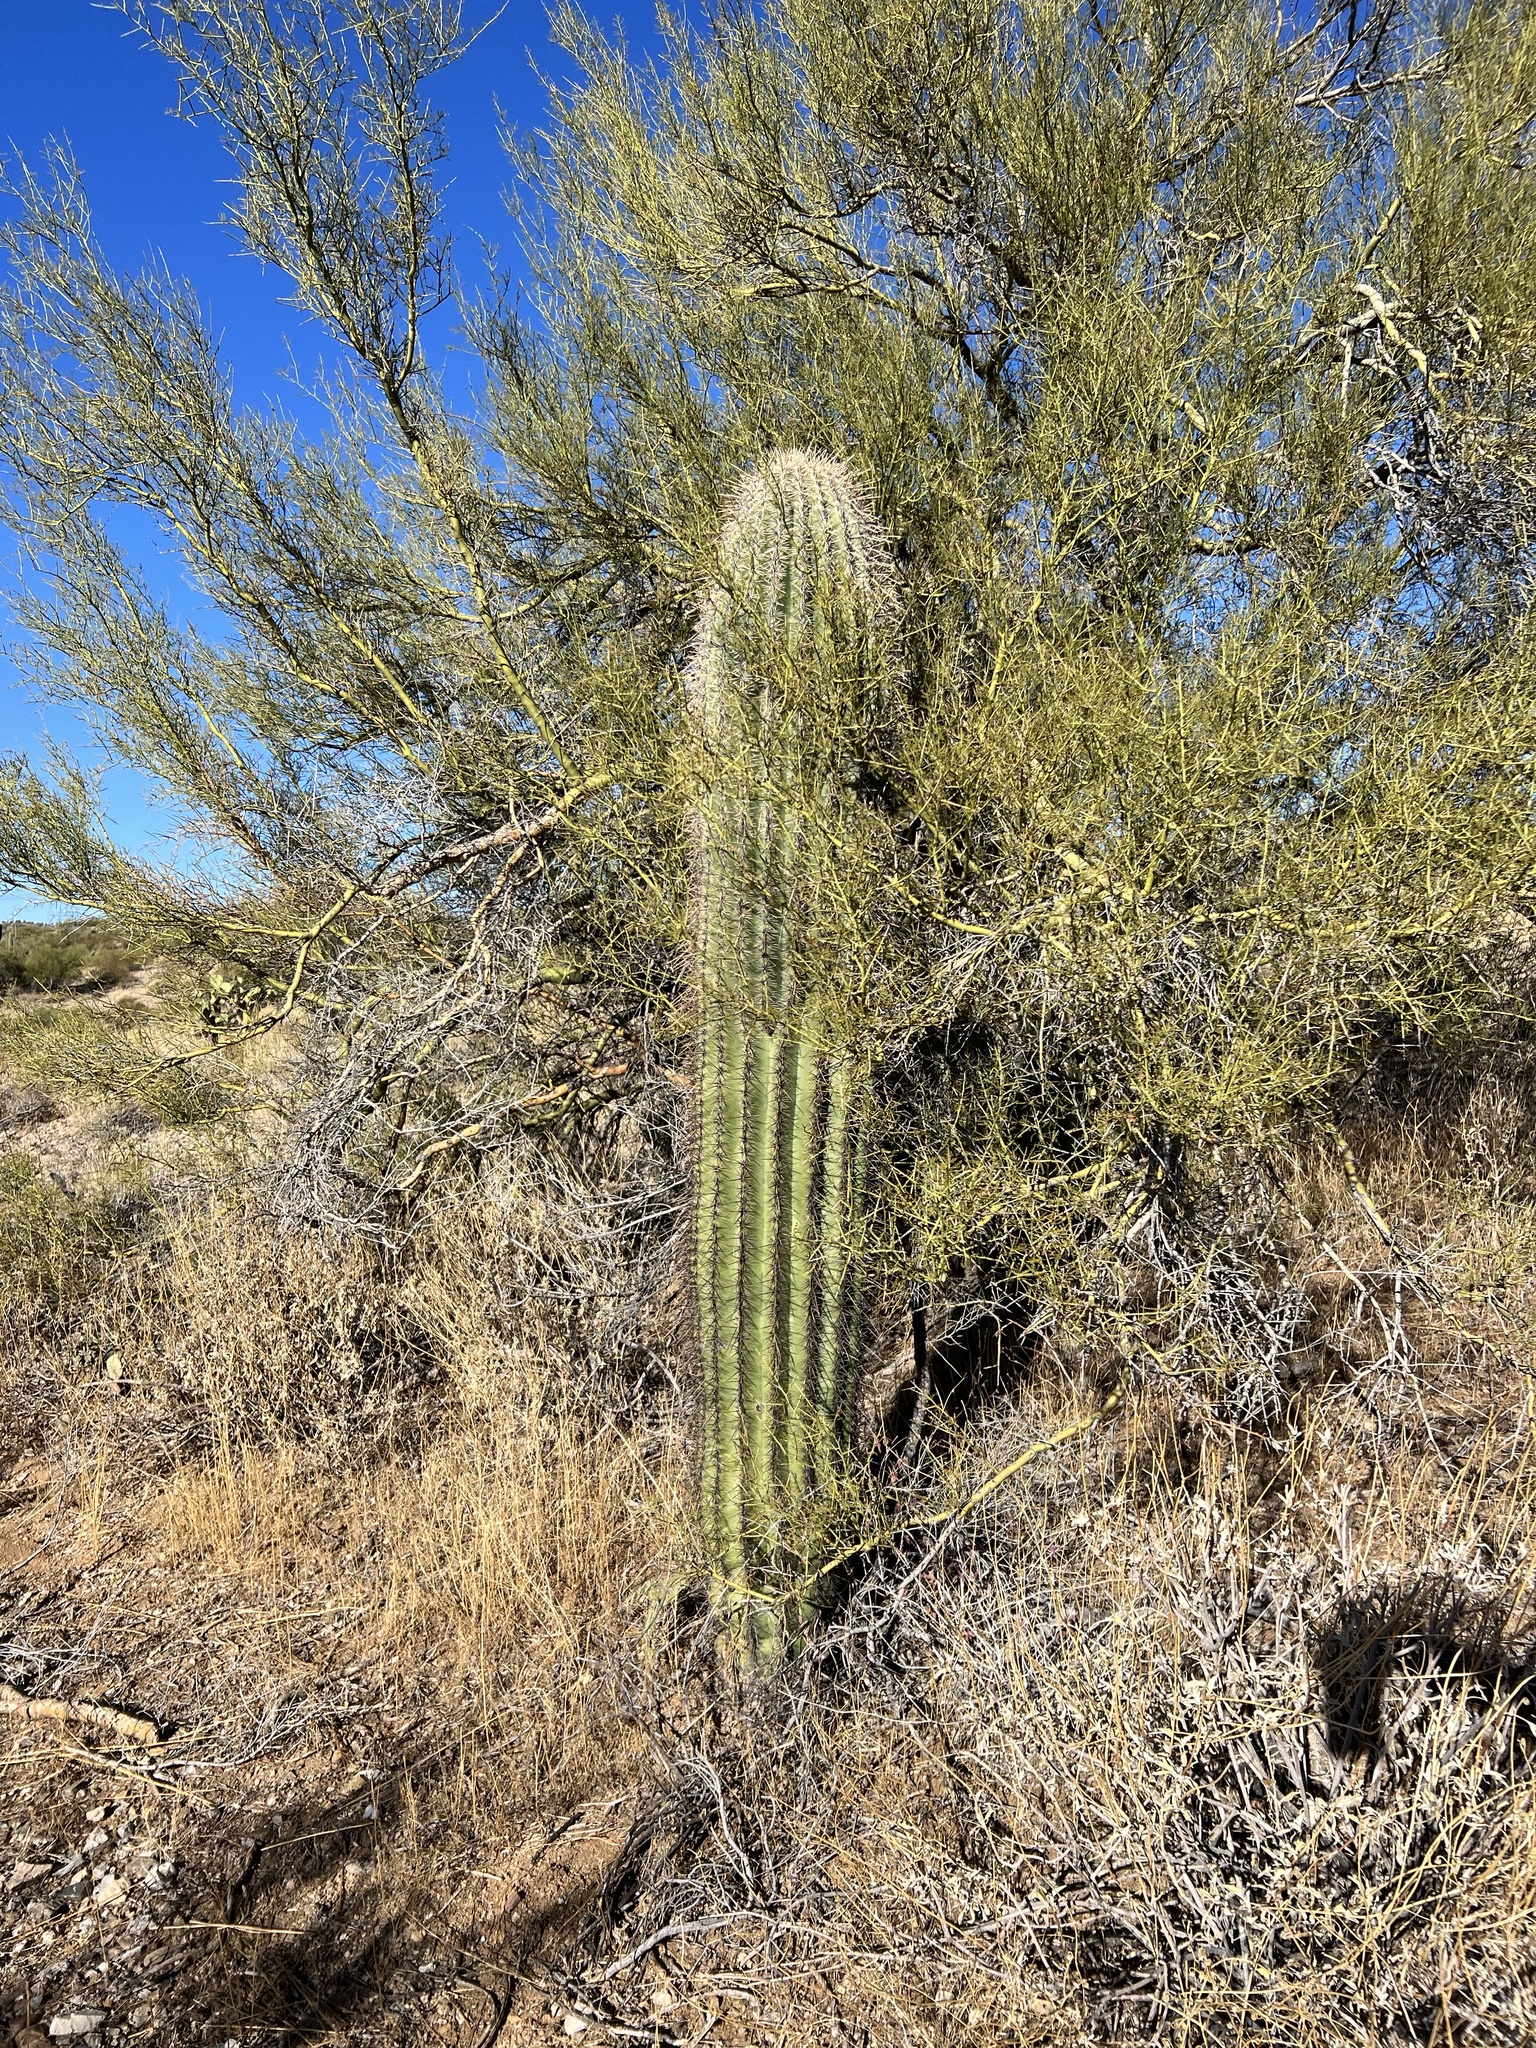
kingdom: Plantae
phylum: Tracheophyta
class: Magnoliopsida
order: Caryophyllales
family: Cactaceae
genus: Carnegiea
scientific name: Carnegiea gigantea
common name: Saguaro
